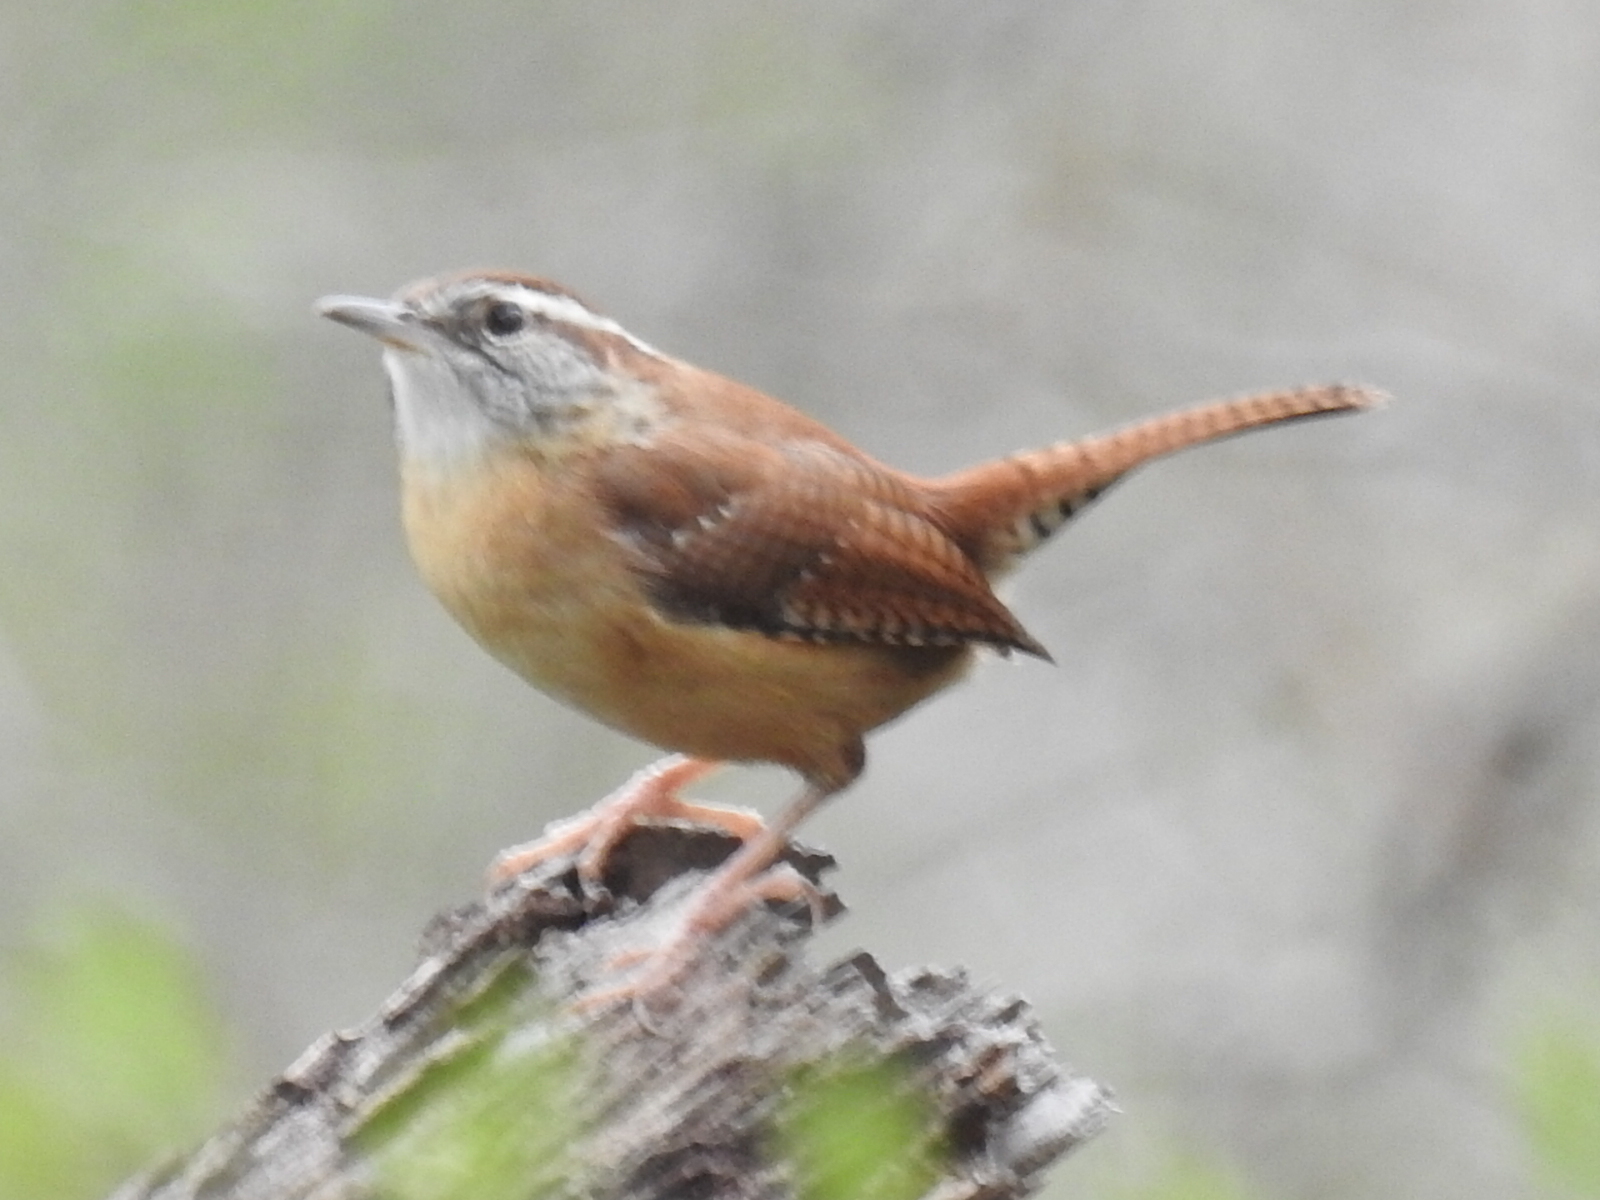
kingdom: Animalia
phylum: Chordata
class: Aves
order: Passeriformes
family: Troglodytidae
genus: Thryothorus
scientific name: Thryothorus ludovicianus
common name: Carolina wren
